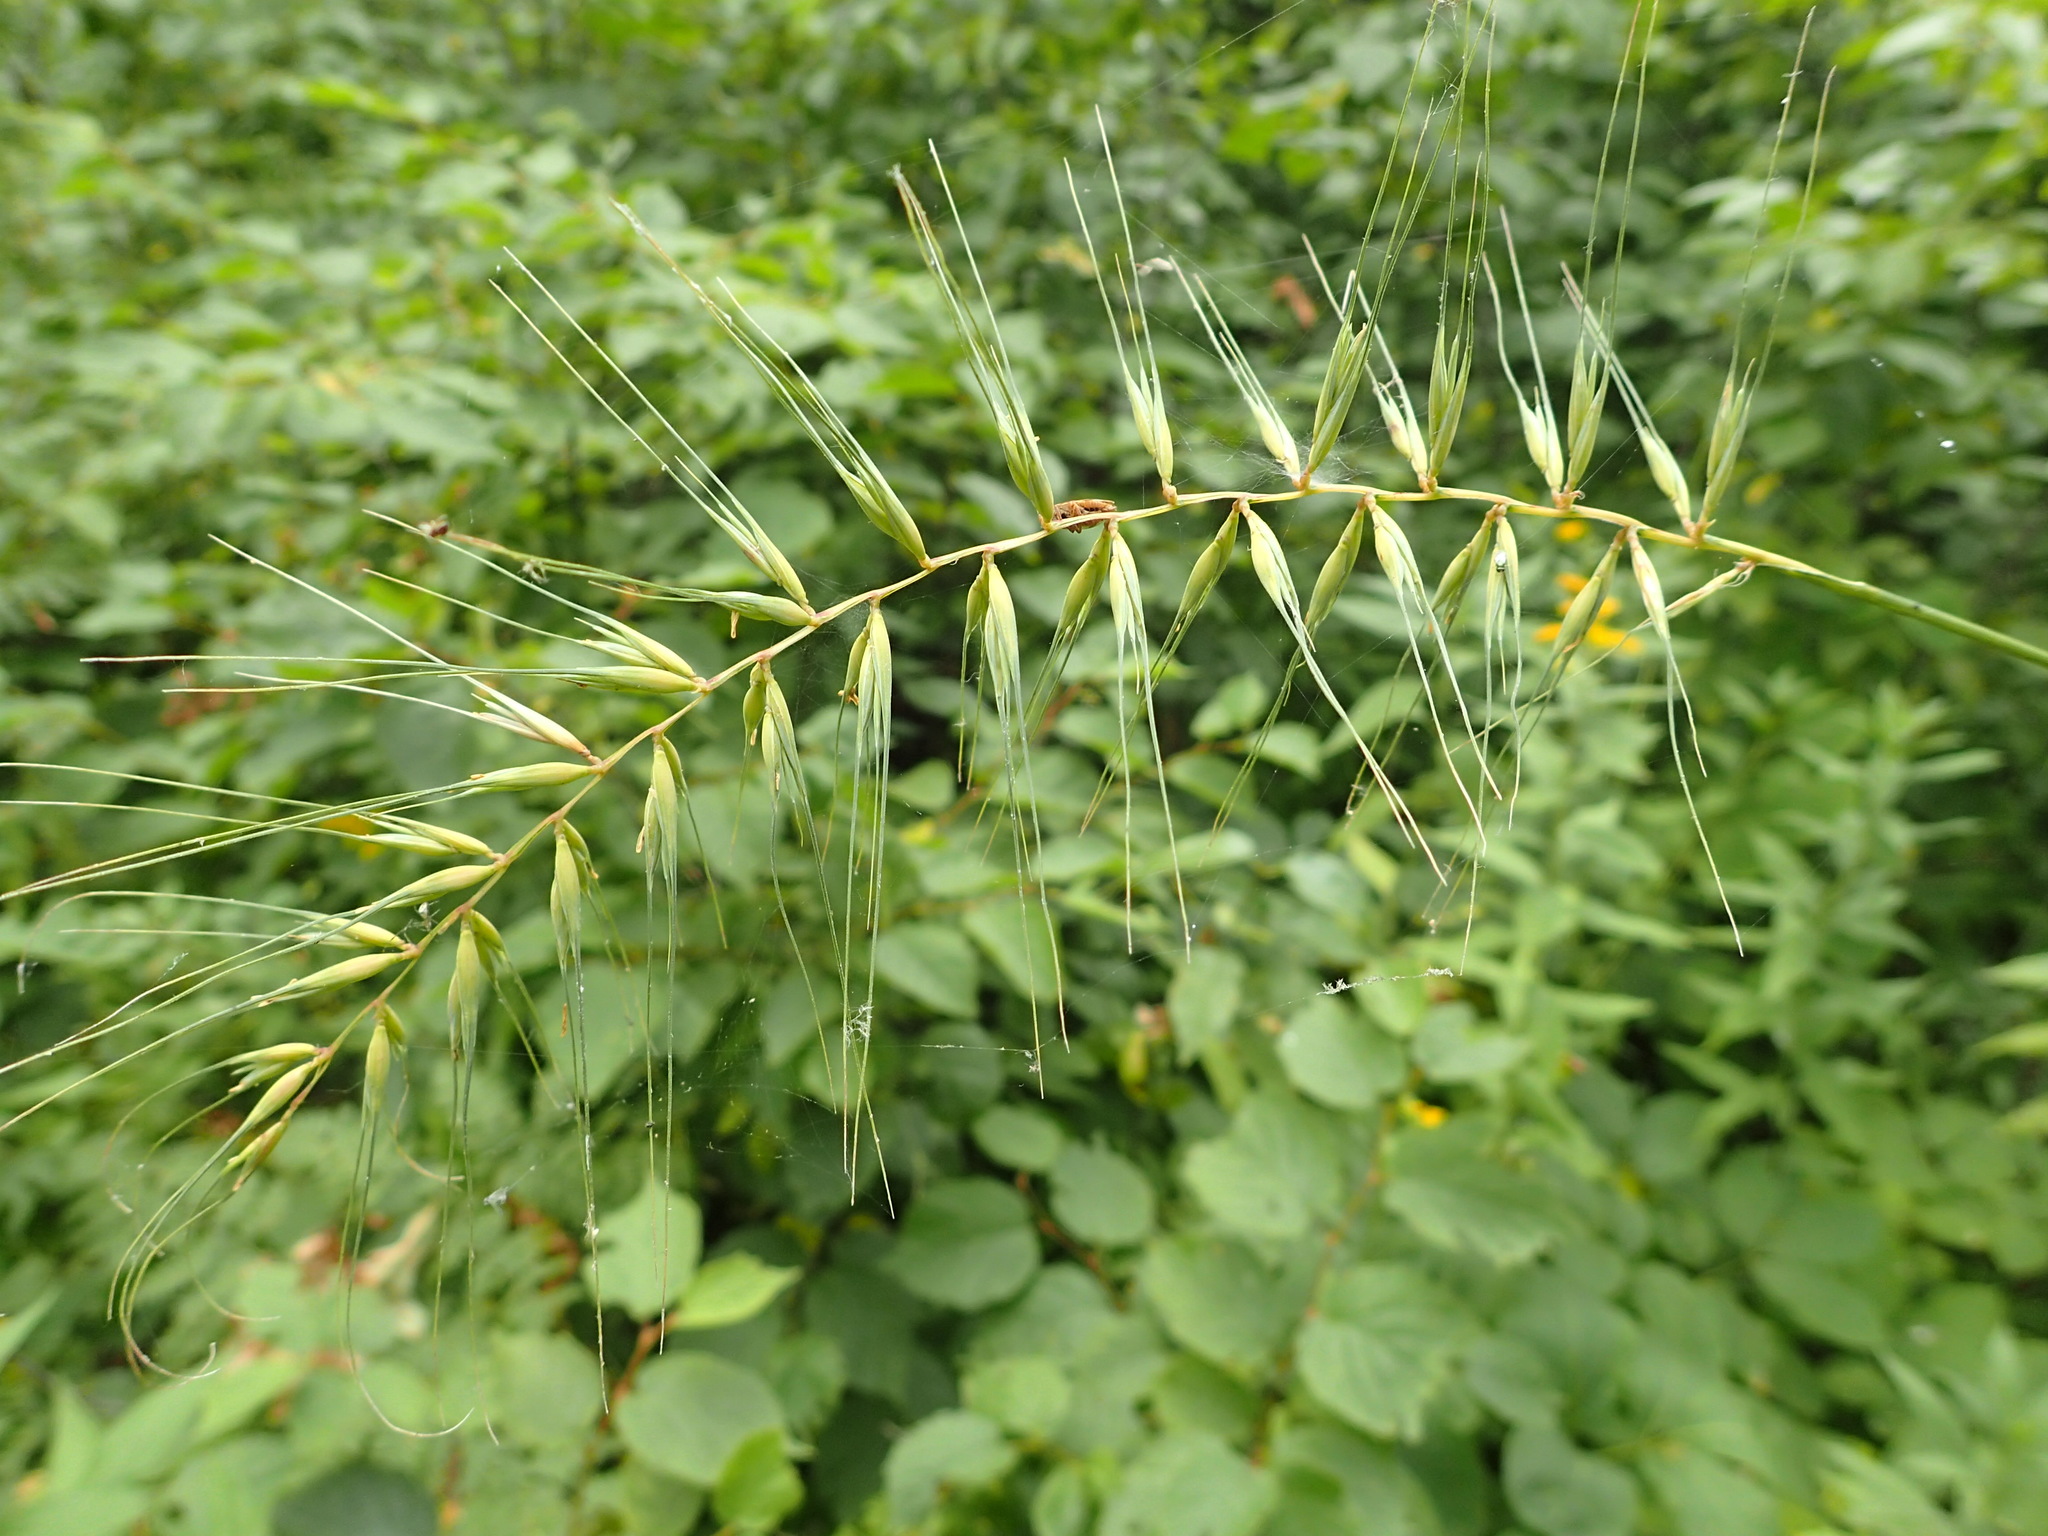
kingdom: Plantae
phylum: Tracheophyta
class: Liliopsida
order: Poales
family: Poaceae
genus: Elymus
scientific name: Elymus hystrix
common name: Bottlebrush grass
